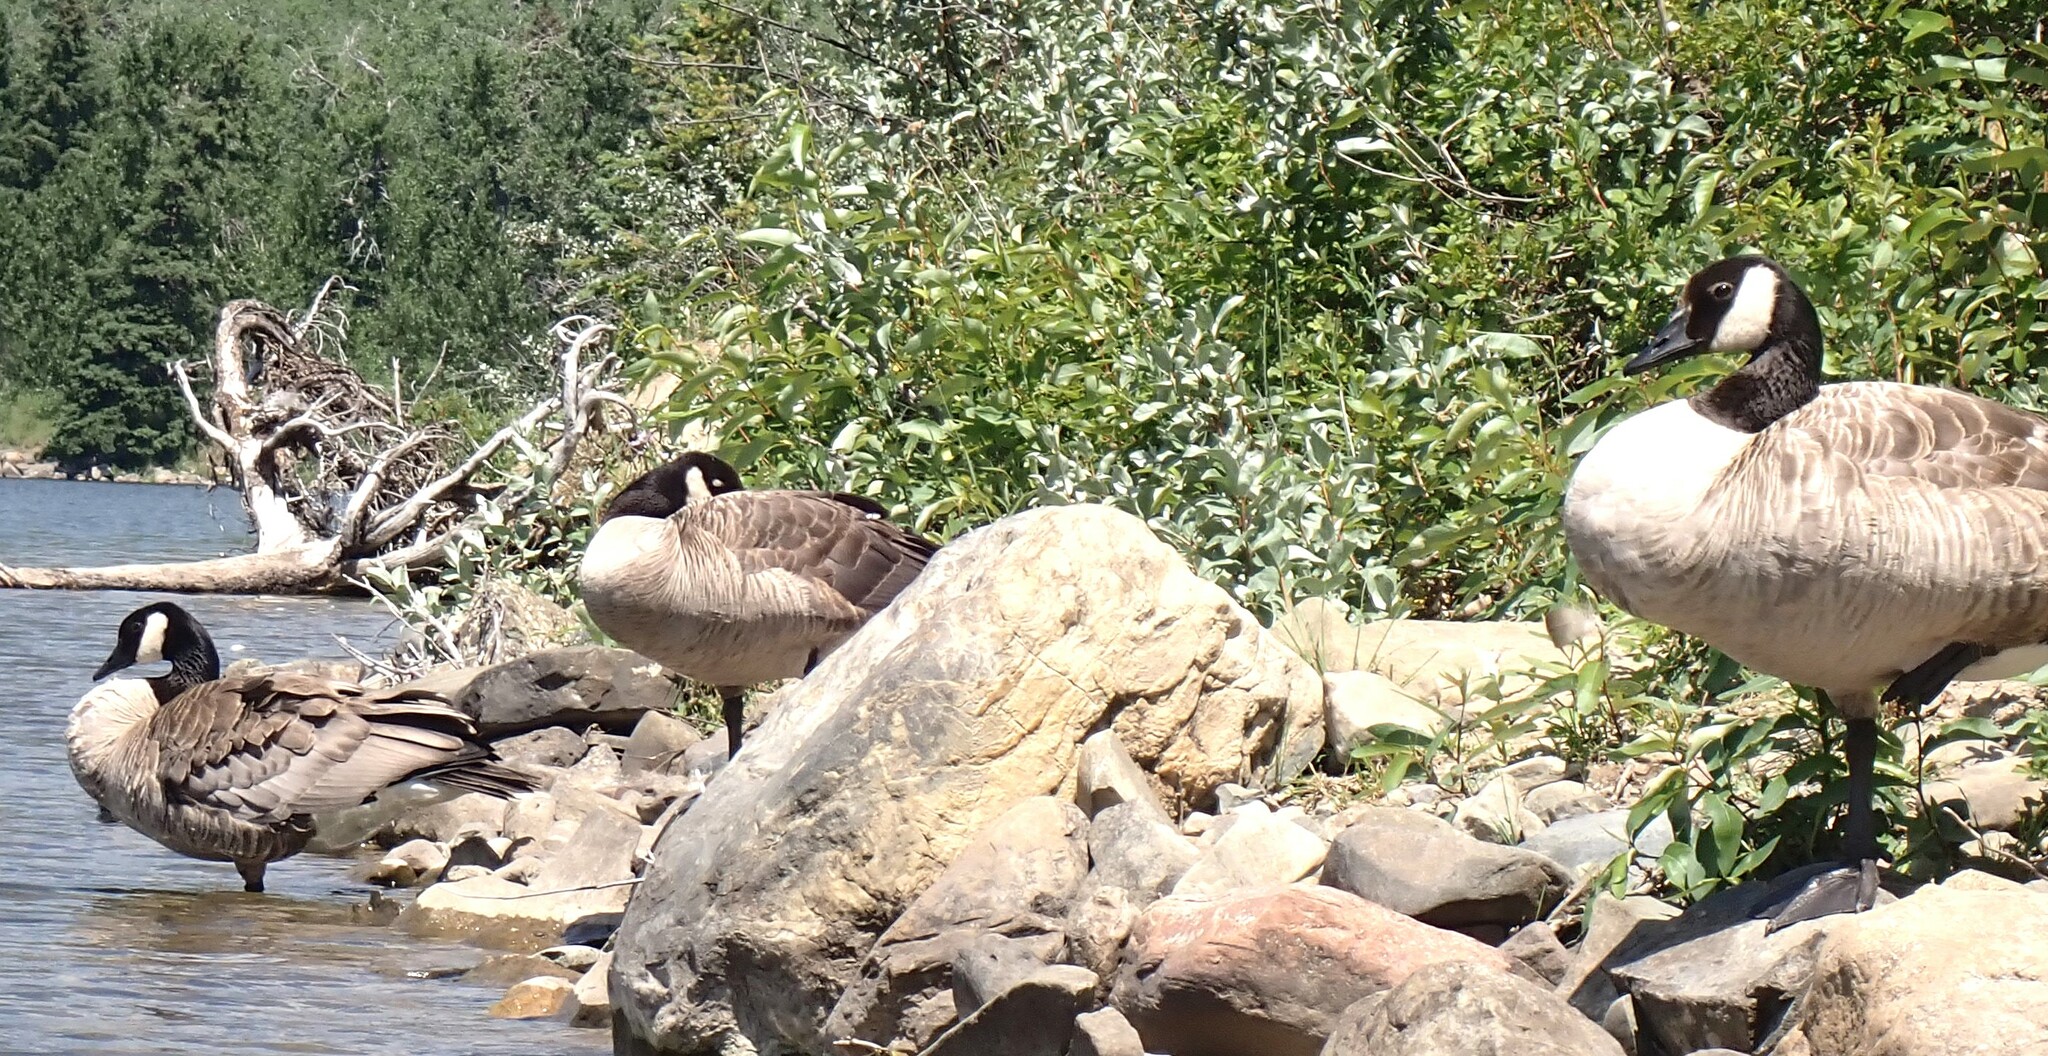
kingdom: Animalia
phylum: Chordata
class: Aves
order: Anseriformes
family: Anatidae
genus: Branta
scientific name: Branta canadensis
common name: Canada goose
